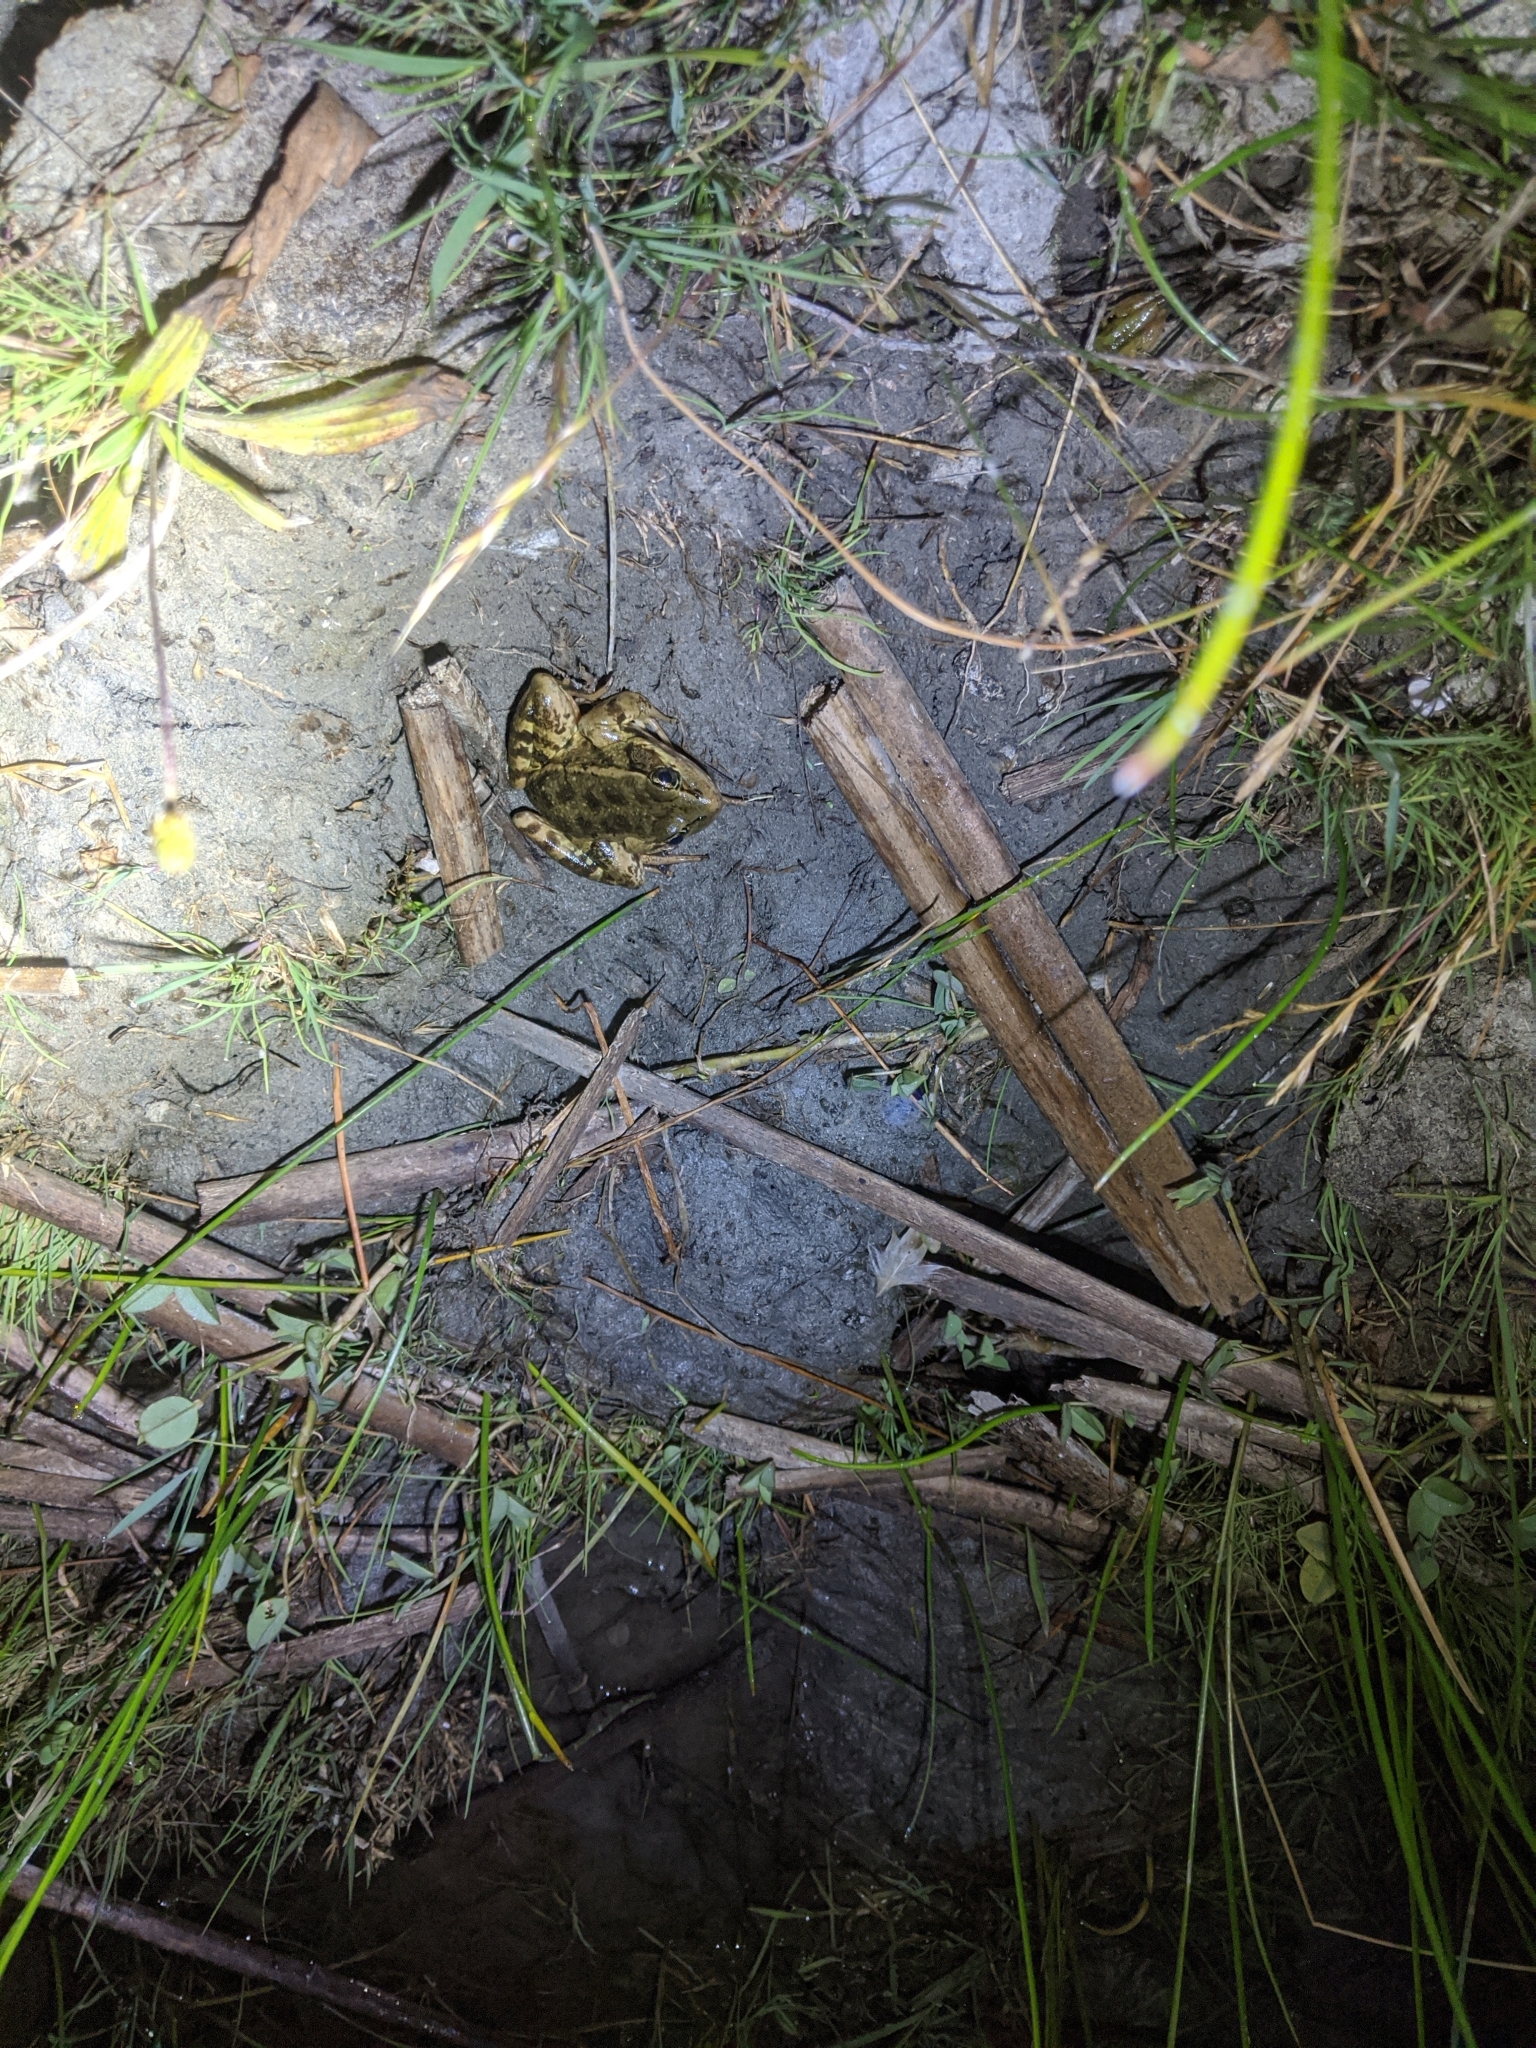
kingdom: Animalia
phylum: Chordata
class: Amphibia
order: Anura
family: Ranidae
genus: Rana
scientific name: Rana draytonii
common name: California red-legged frog
